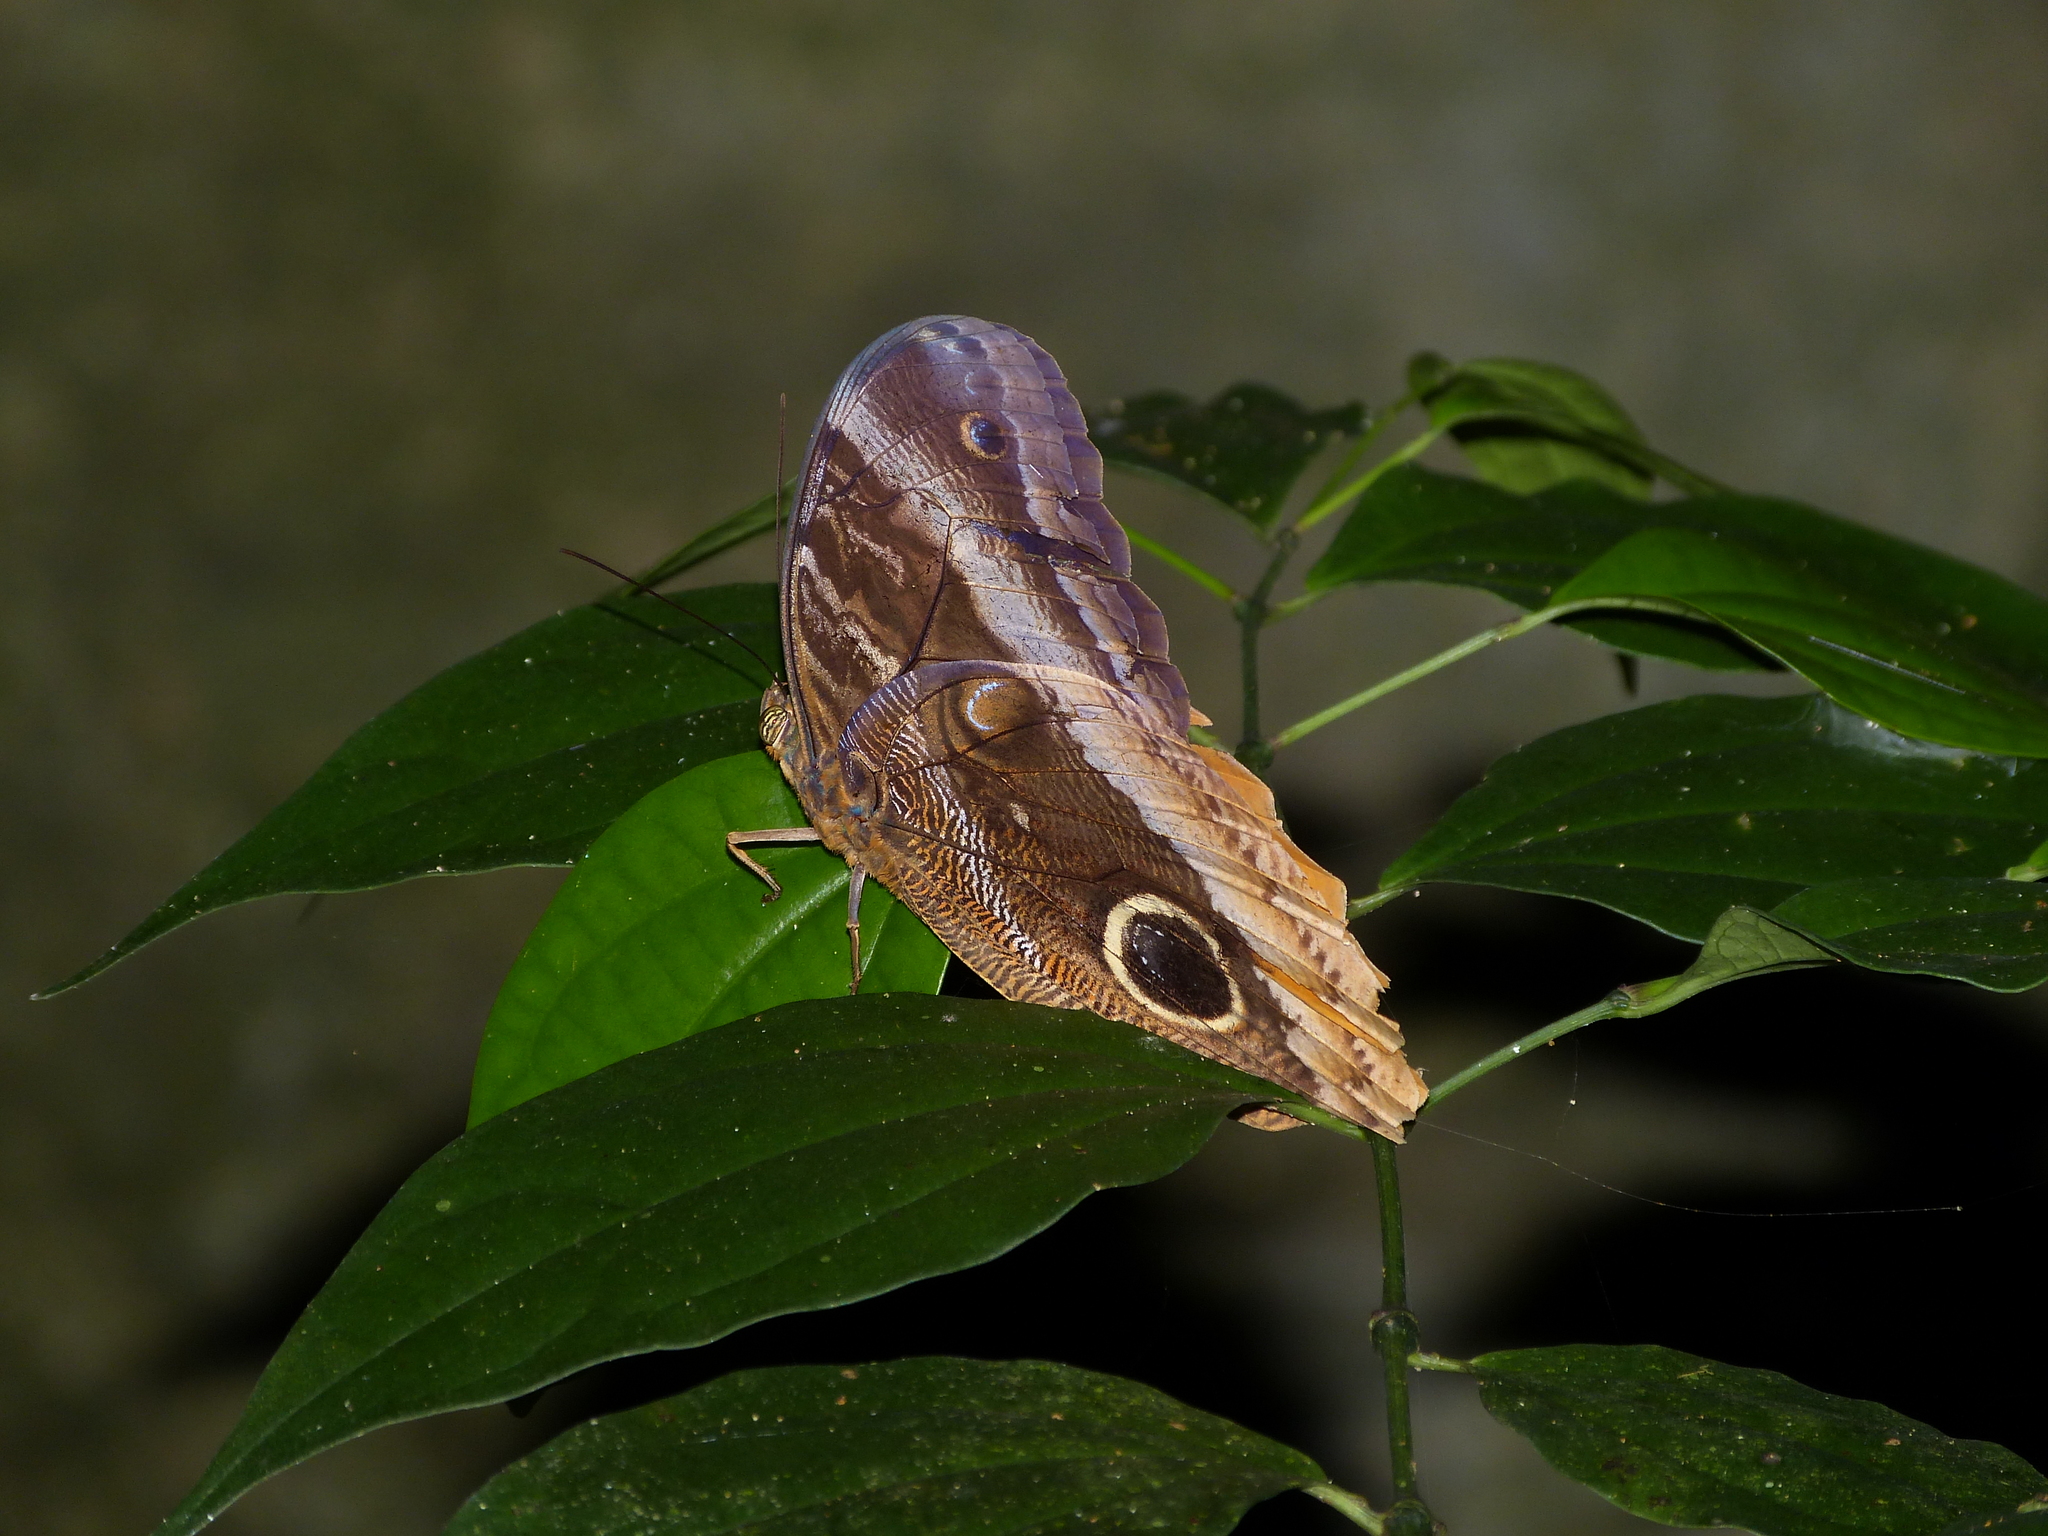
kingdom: Animalia
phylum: Arthropoda
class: Insecta
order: Lepidoptera
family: Nymphalidae
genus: Caligo
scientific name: Caligo uranus
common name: Gold-edged owl-butterfly
